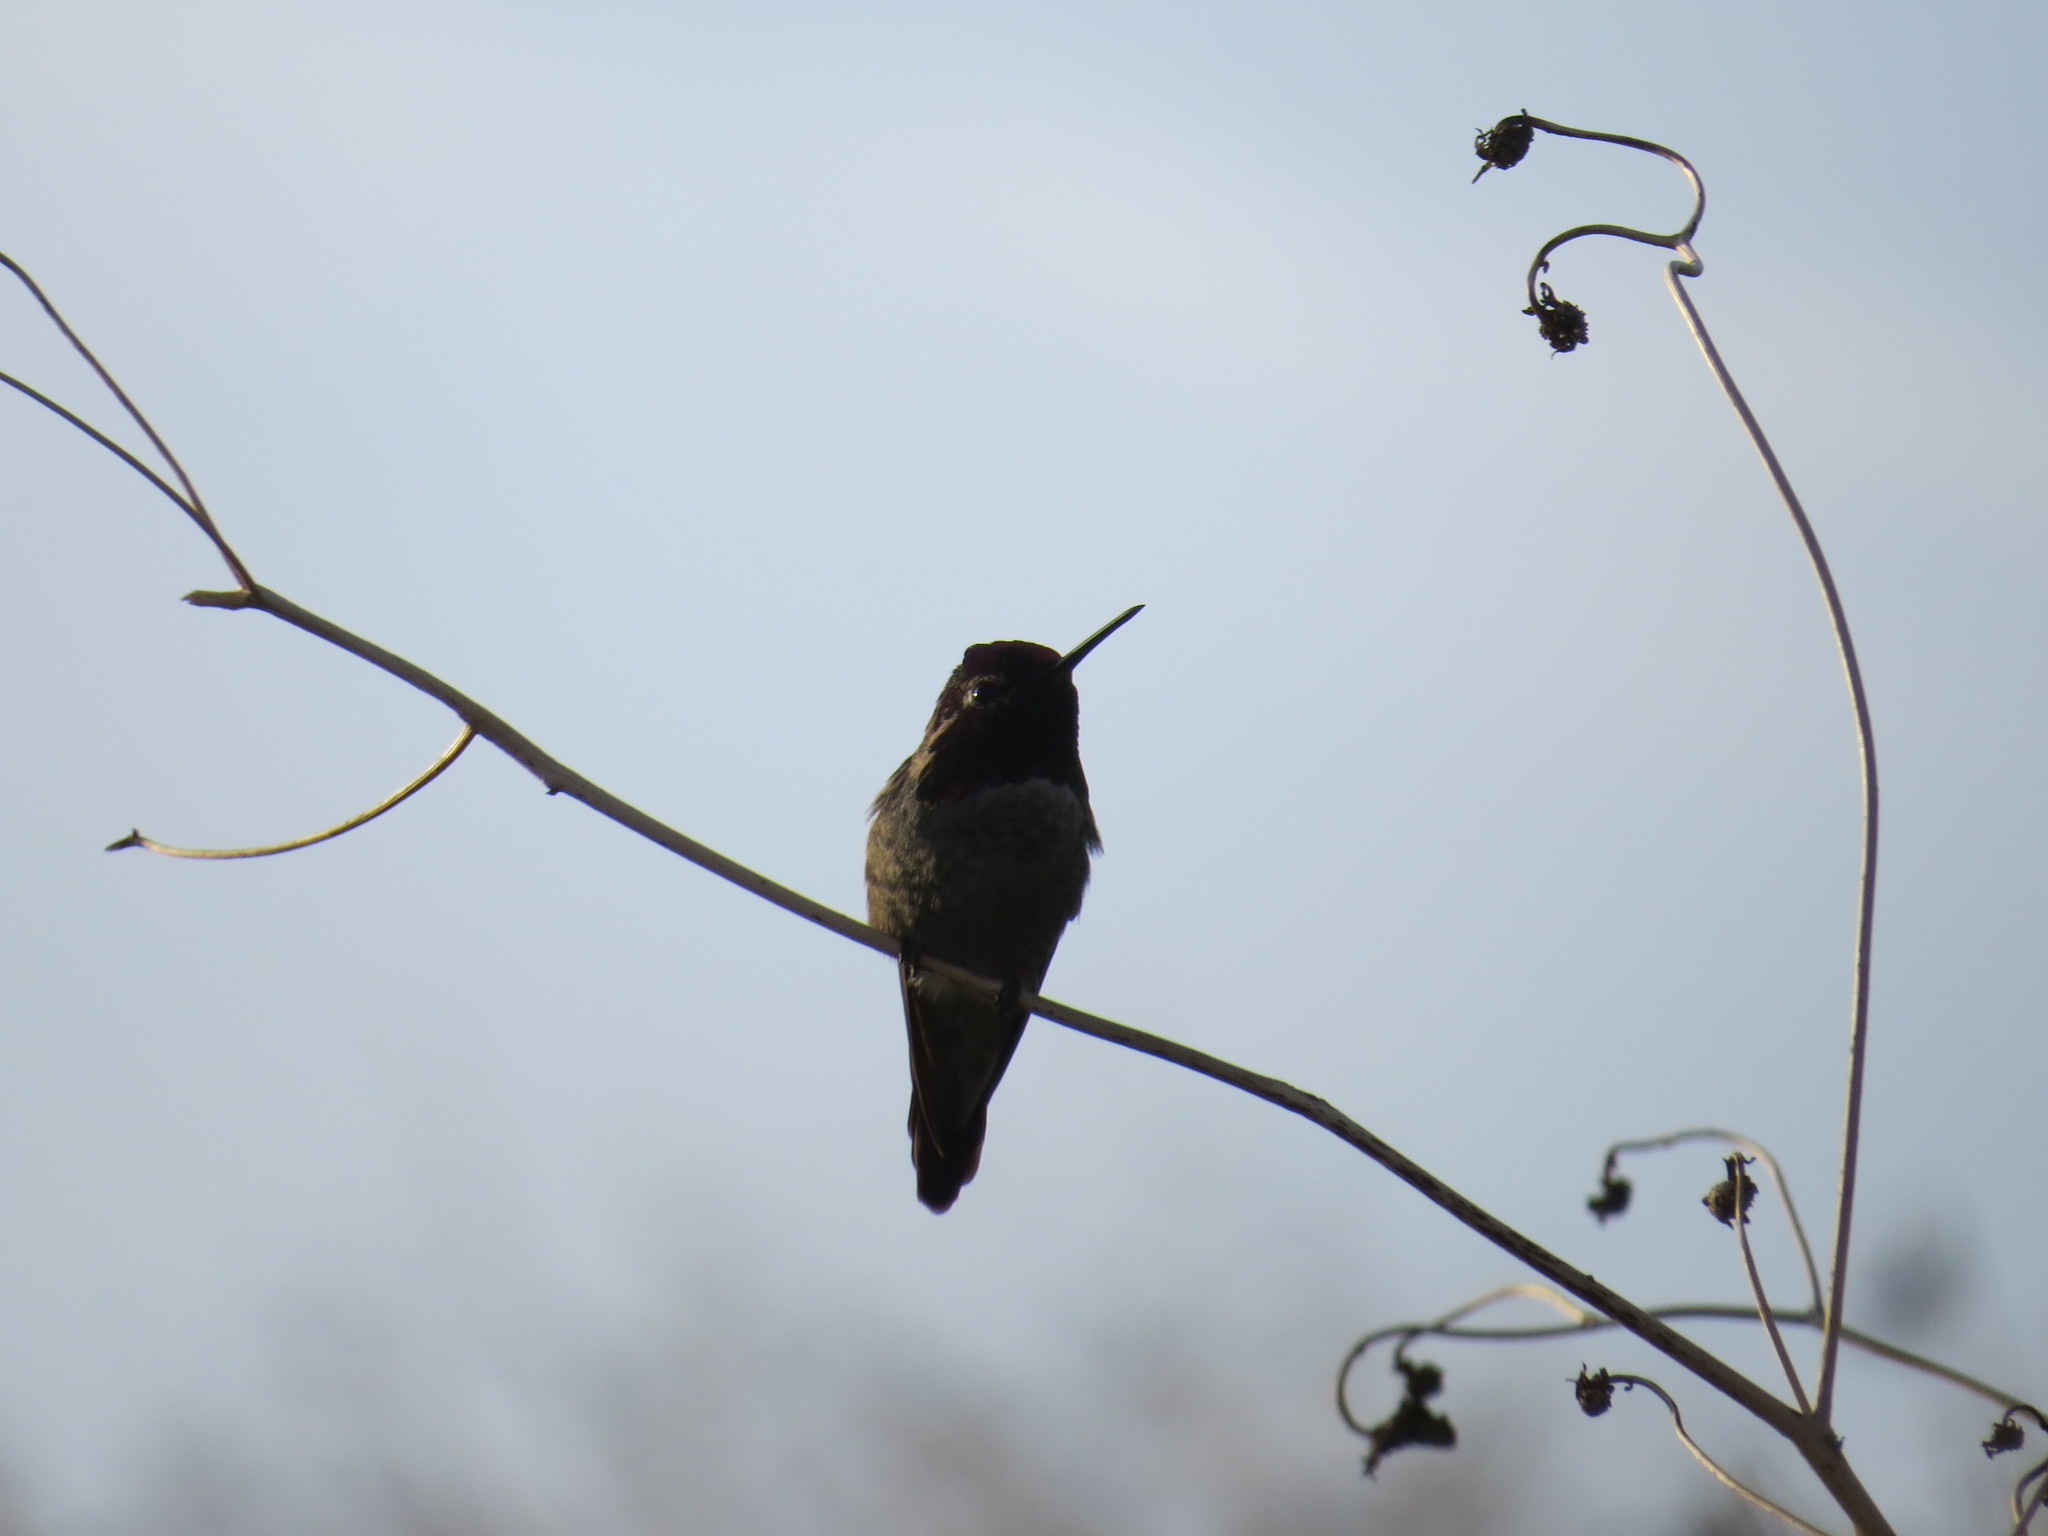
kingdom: Animalia
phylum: Chordata
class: Aves
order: Apodiformes
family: Trochilidae
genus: Calypte
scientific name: Calypte anna
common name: Anna's hummingbird
